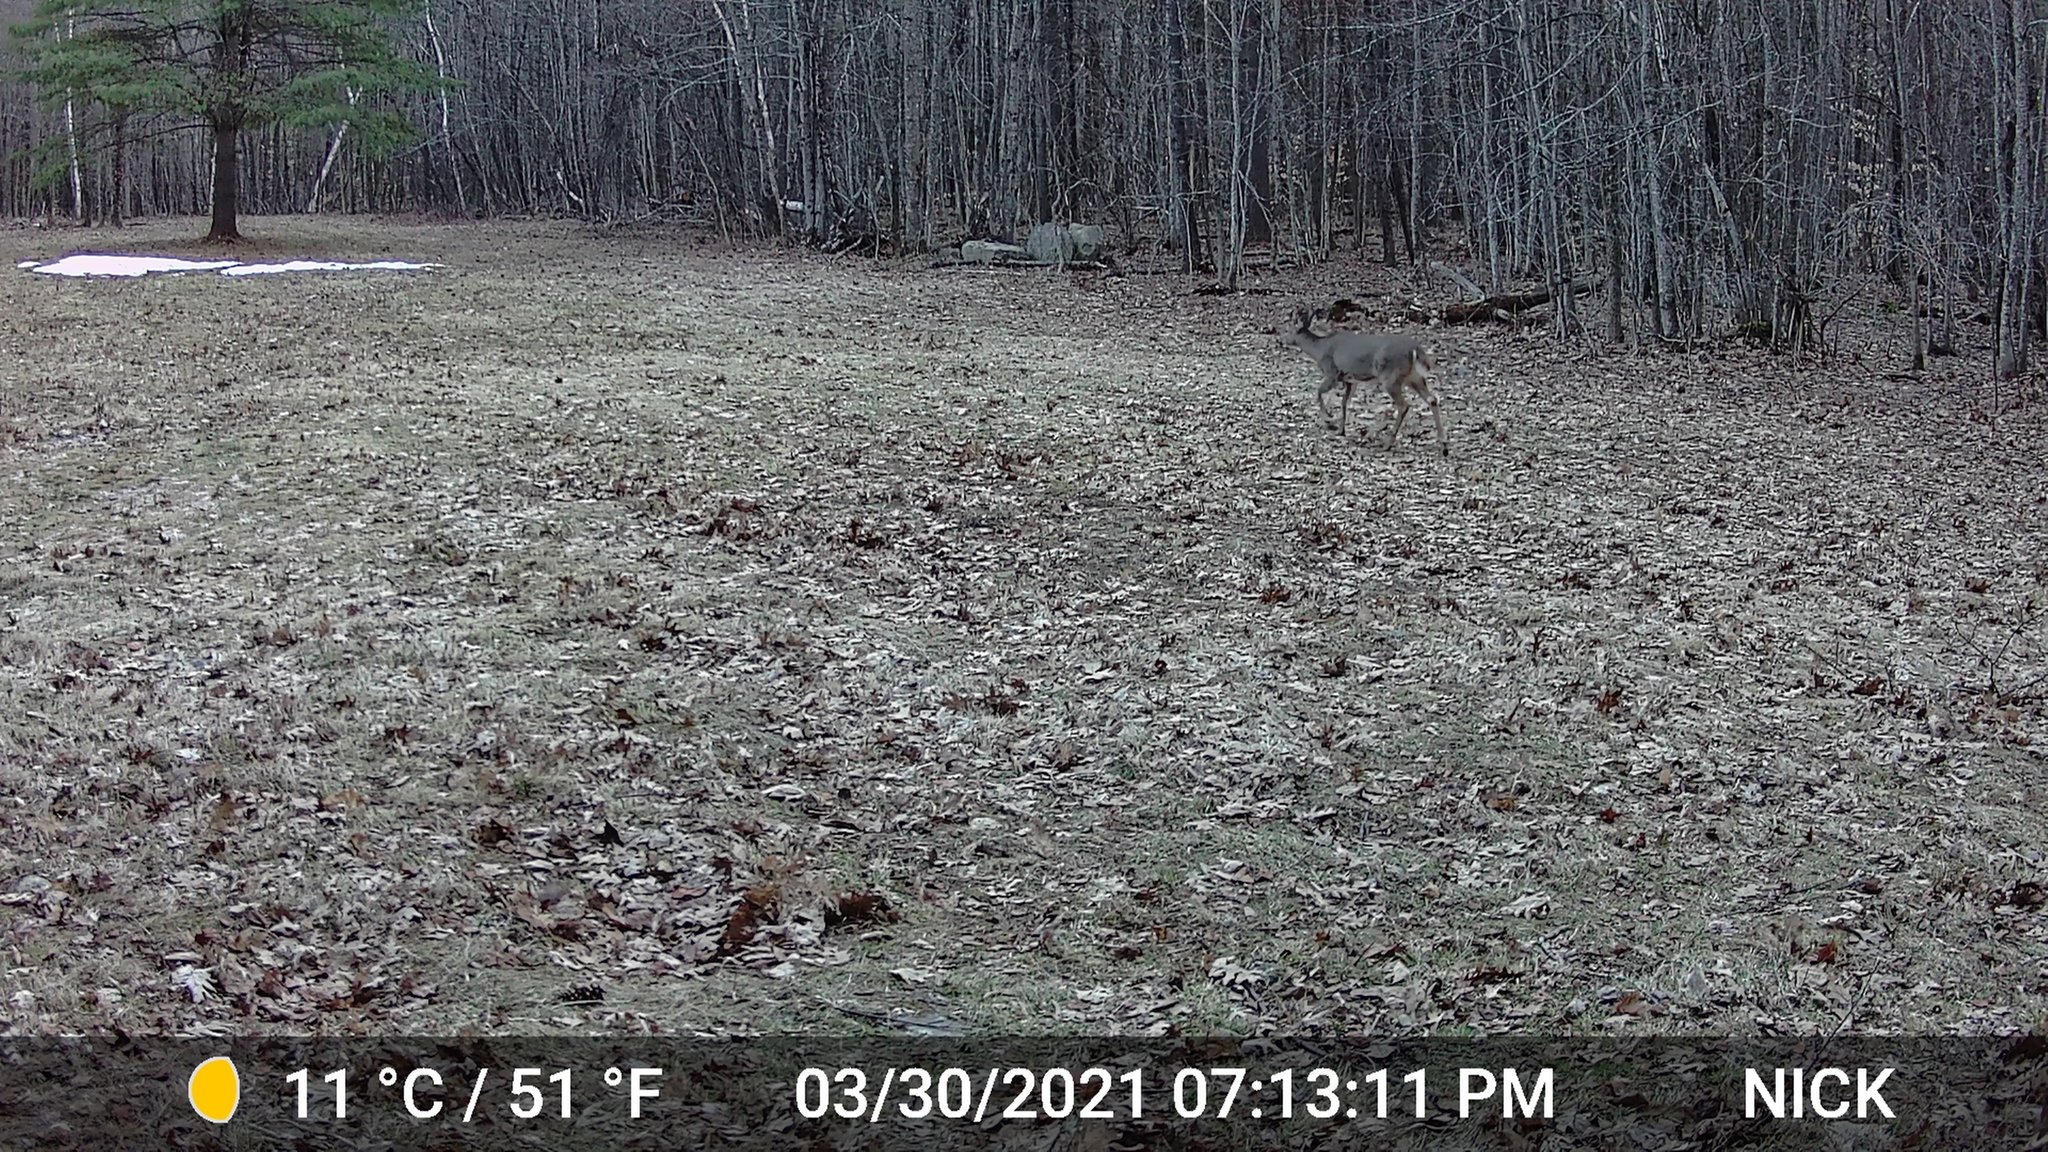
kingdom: Animalia
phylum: Chordata
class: Mammalia
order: Artiodactyla
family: Cervidae
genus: Odocoileus
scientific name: Odocoileus virginianus
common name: White-tailed deer
